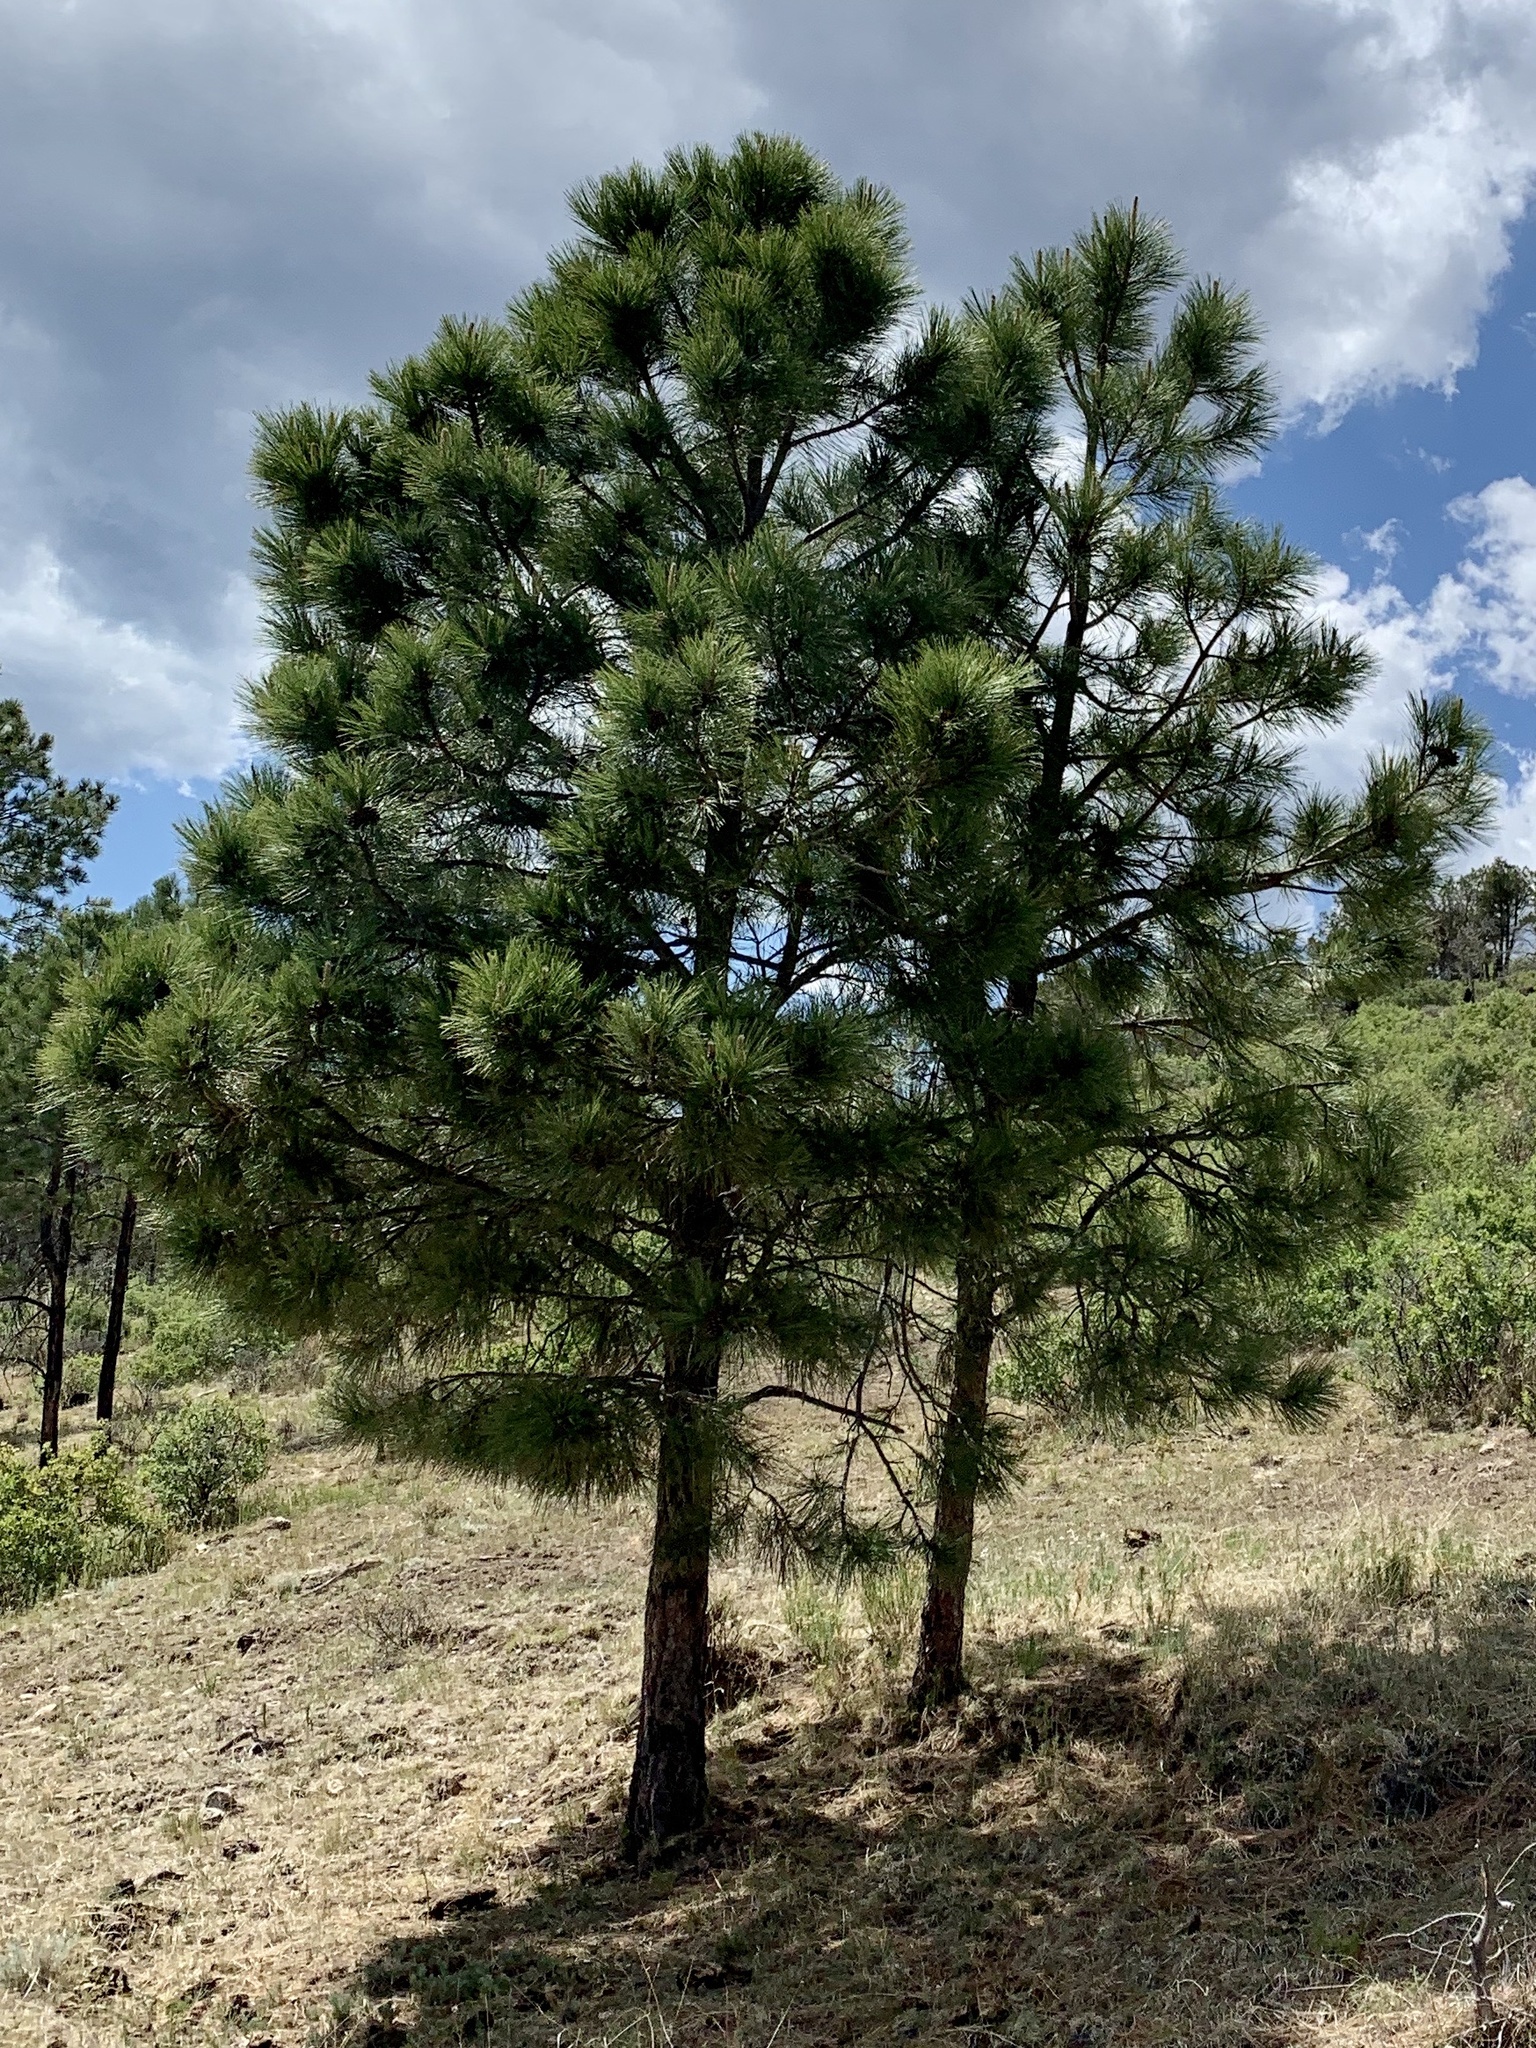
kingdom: Plantae
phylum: Tracheophyta
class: Pinopsida
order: Pinales
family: Pinaceae
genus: Pinus
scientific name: Pinus ponderosa
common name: Western yellow-pine
